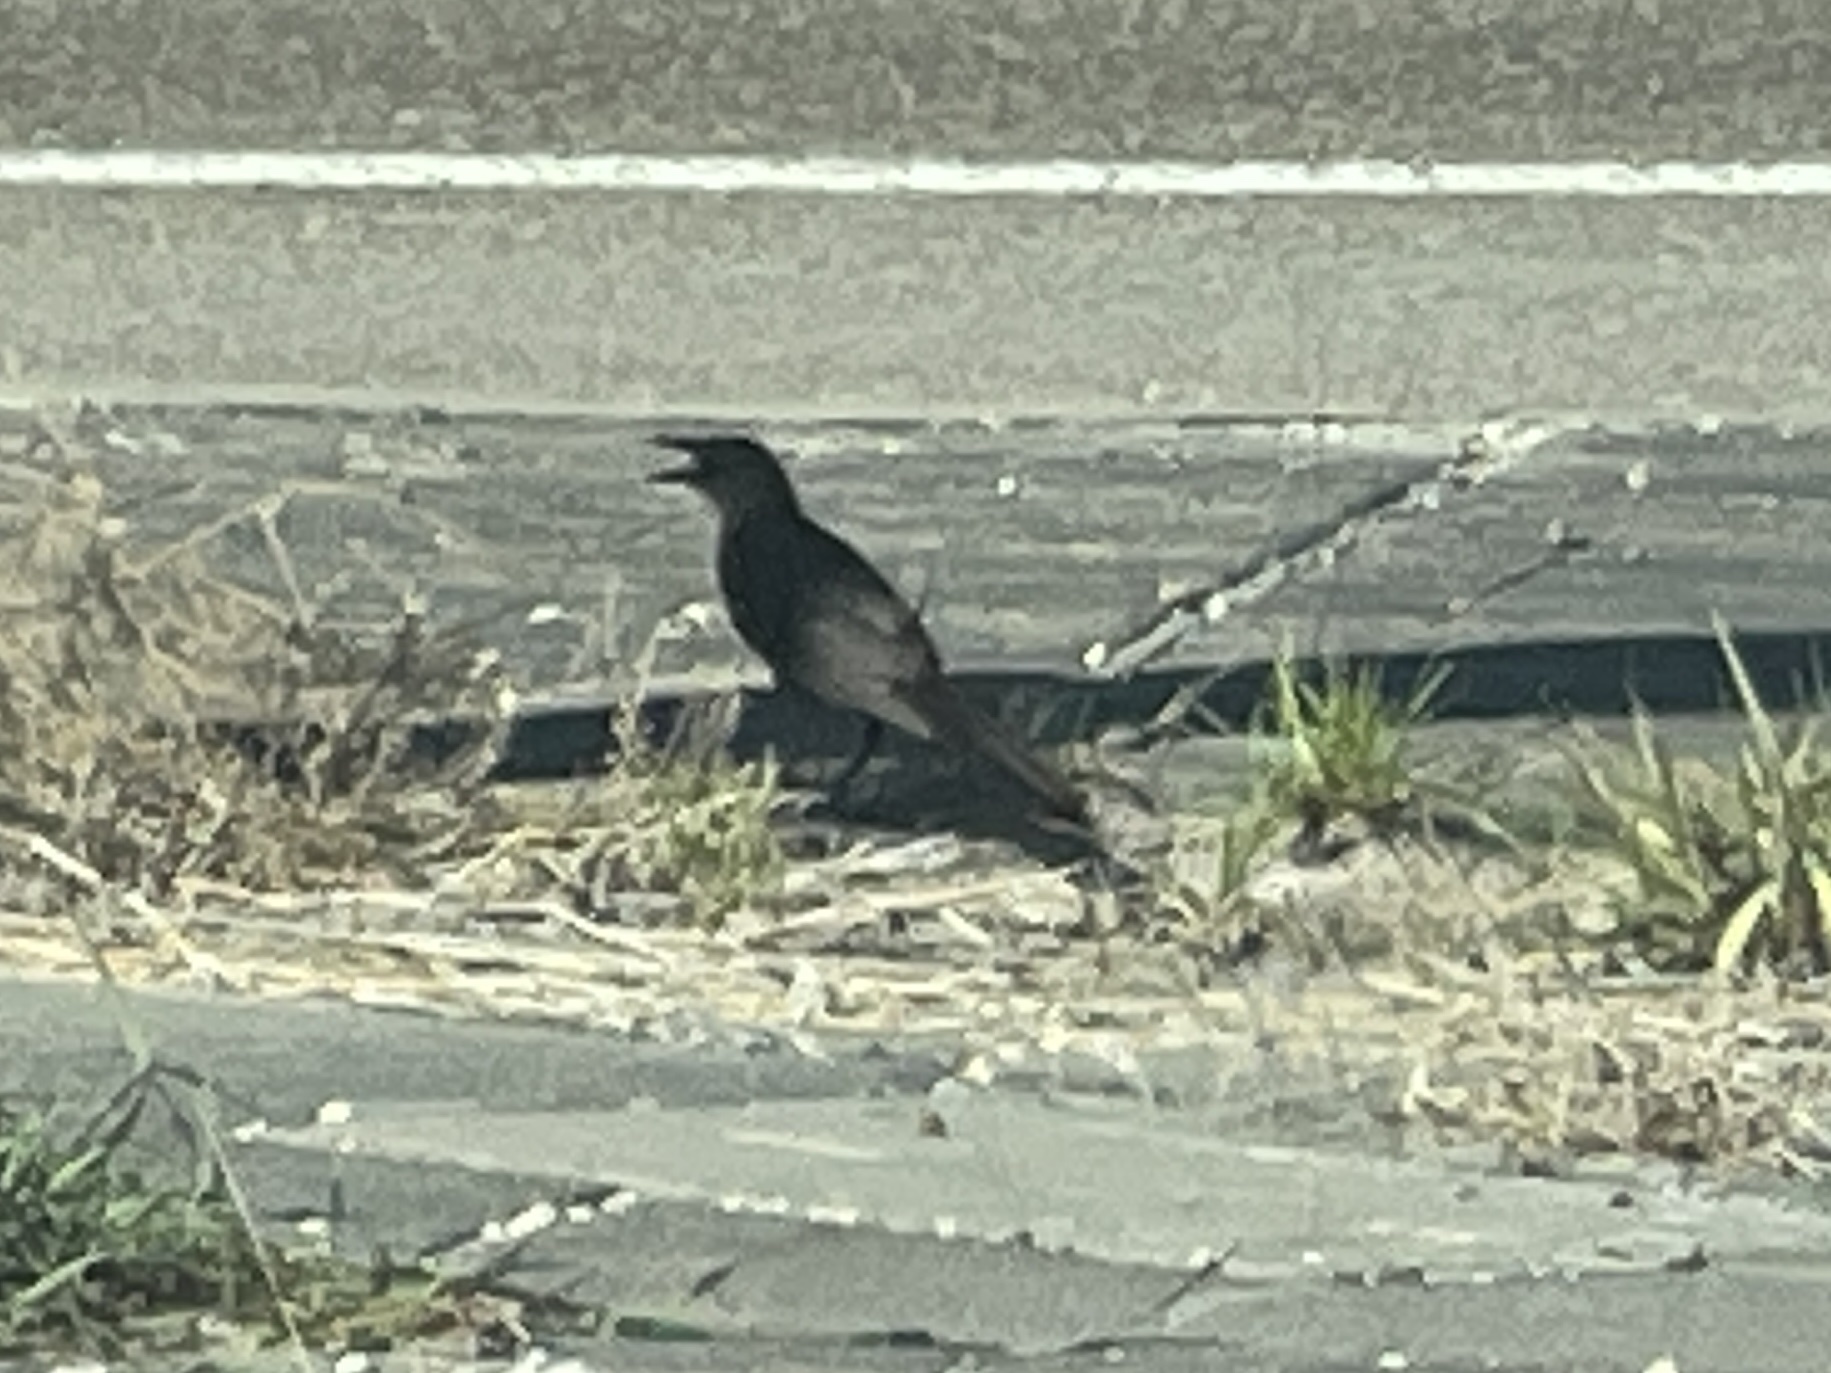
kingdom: Animalia
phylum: Chordata
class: Aves
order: Passeriformes
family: Icteridae
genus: Quiscalus
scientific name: Quiscalus mexicanus
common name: Great-tailed grackle
